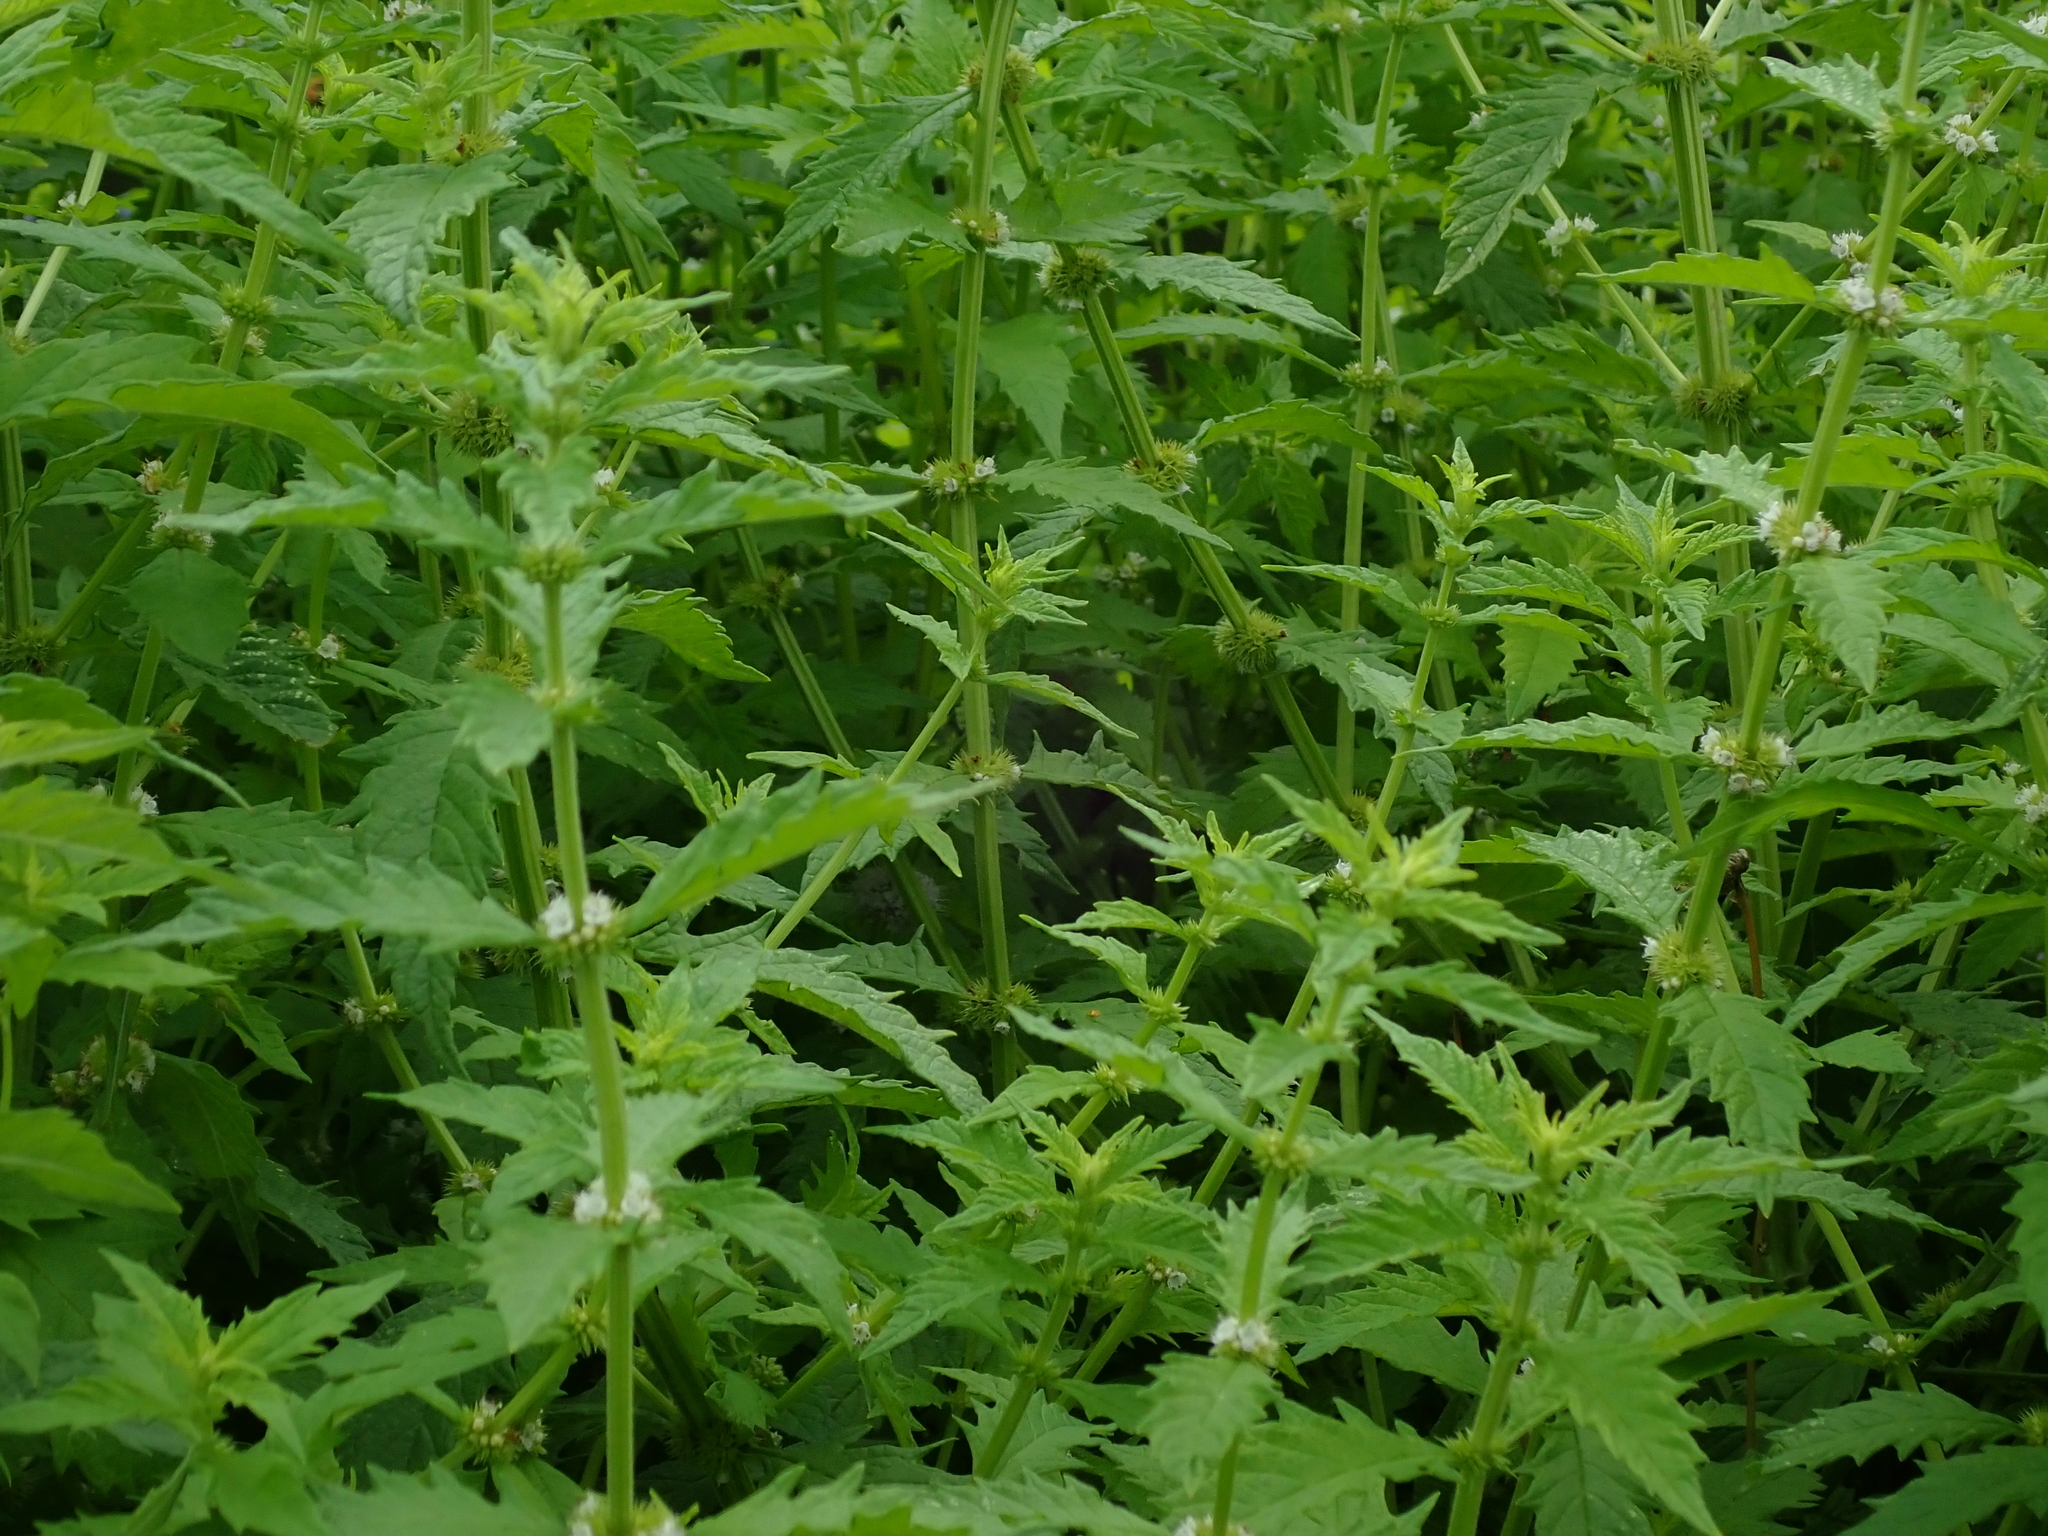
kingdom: Plantae
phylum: Tracheophyta
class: Magnoliopsida
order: Lamiales
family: Lamiaceae
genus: Lycopus
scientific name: Lycopus europaeus
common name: European bugleweed
